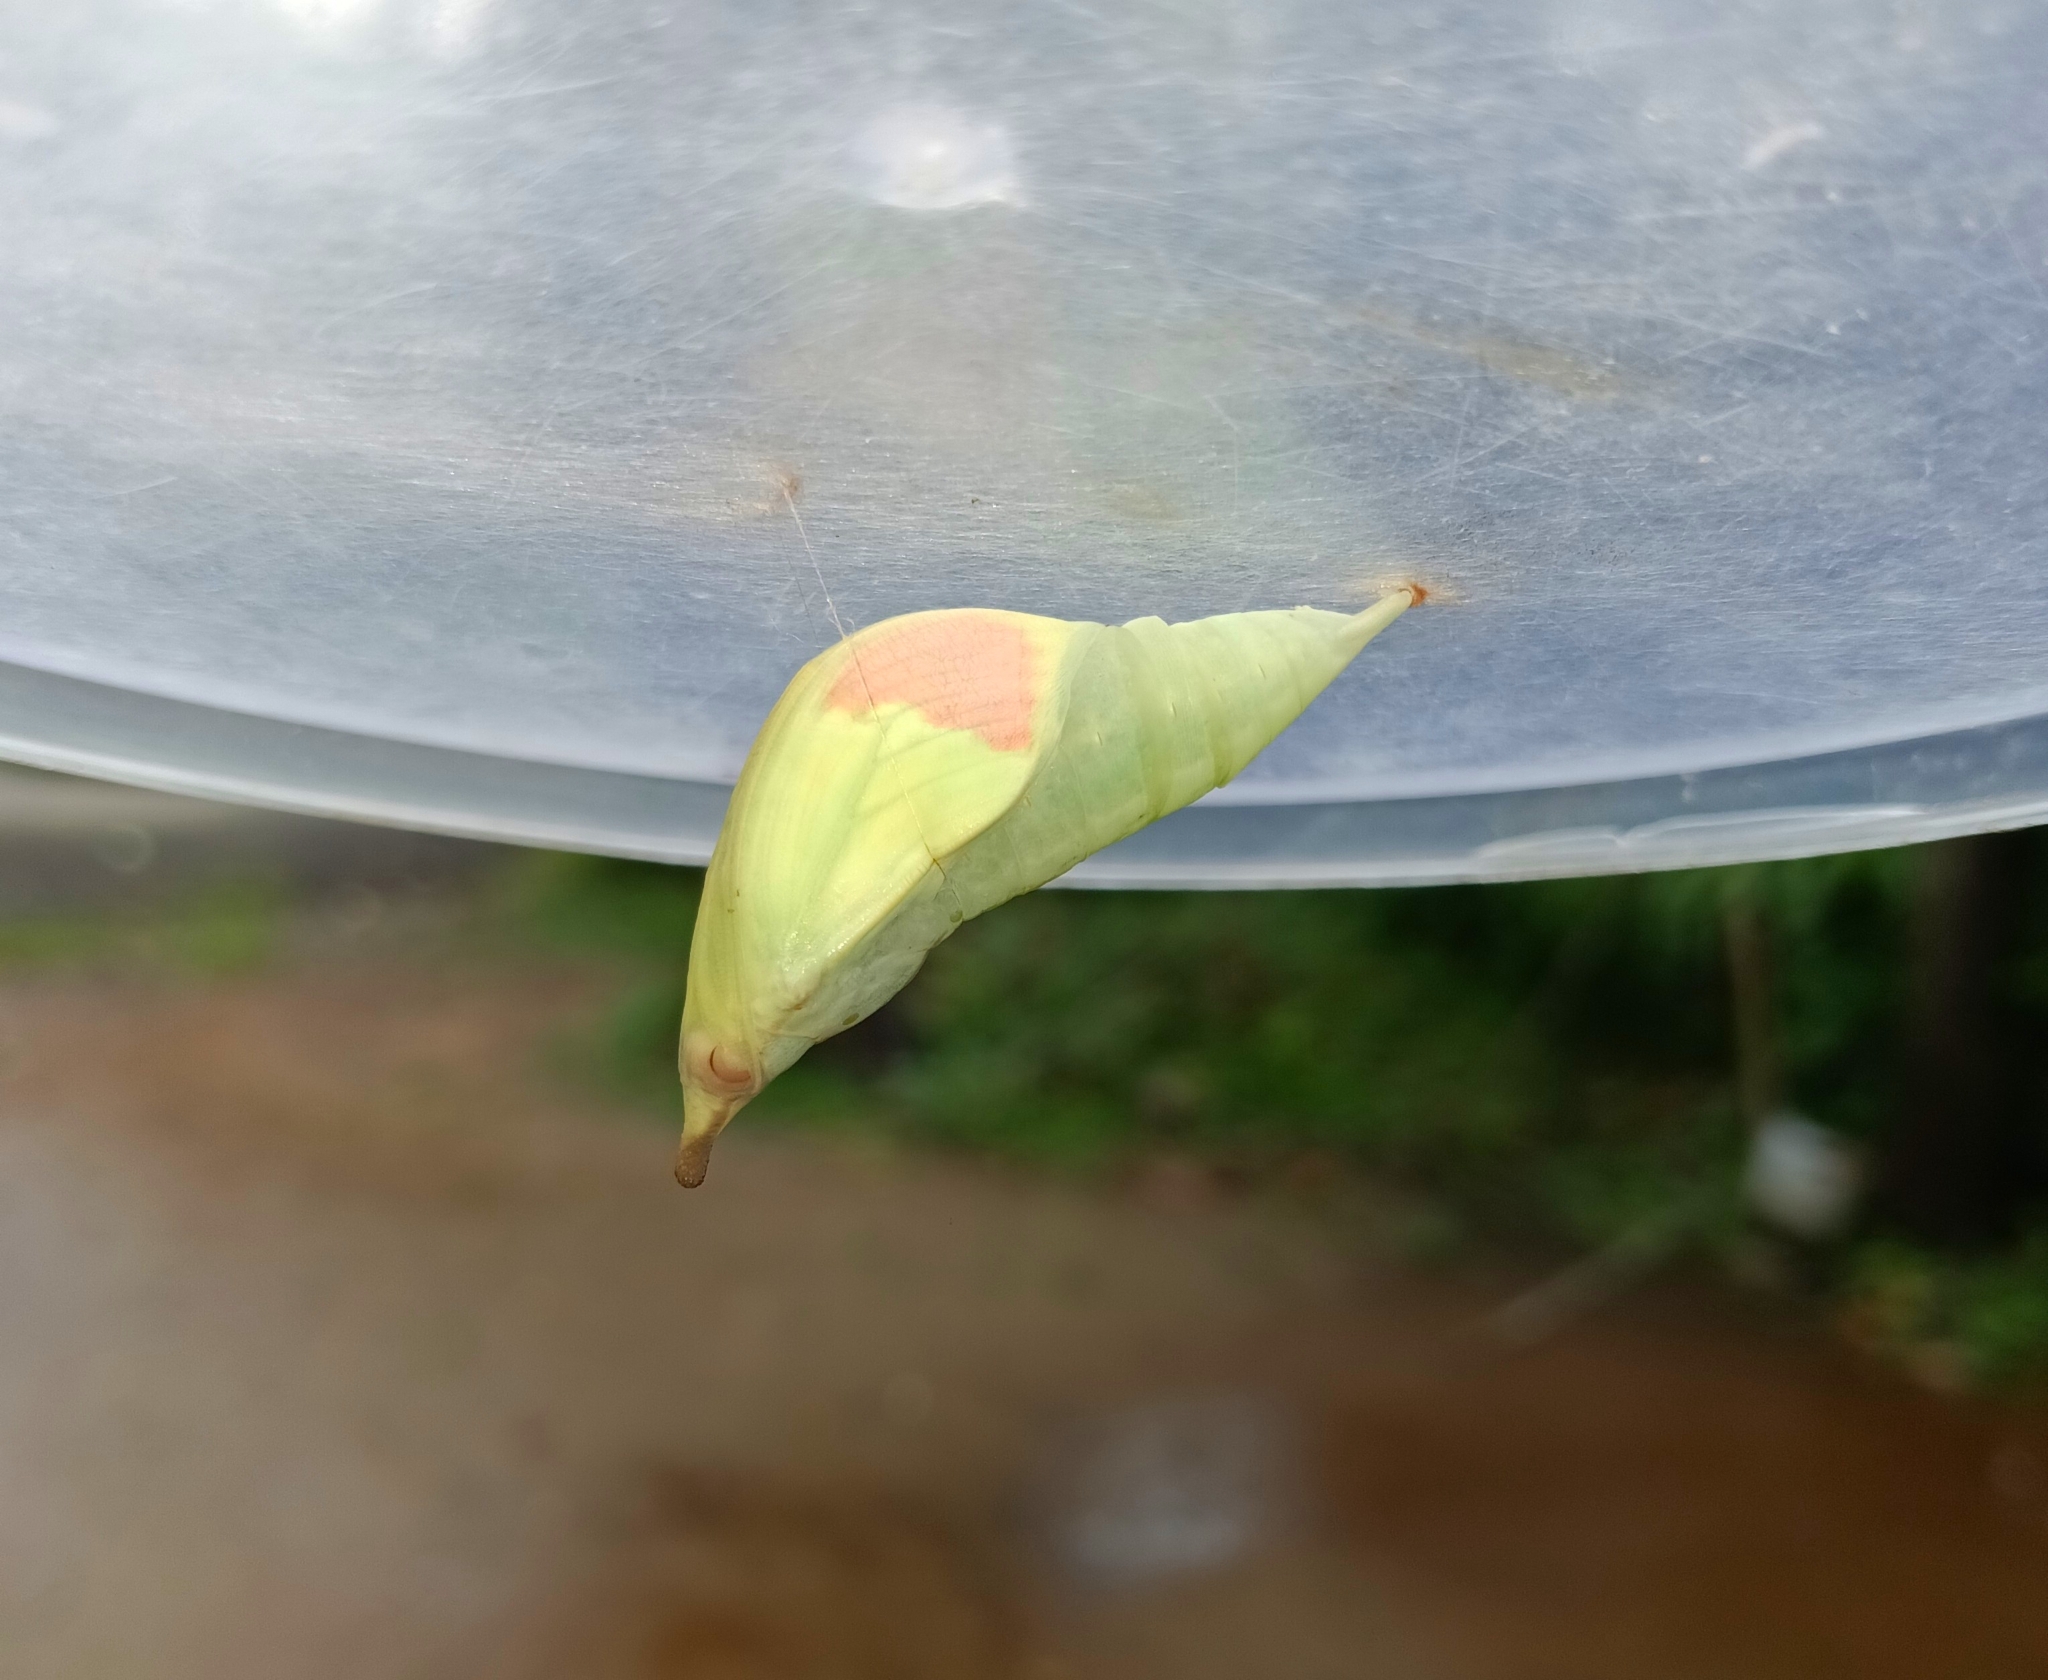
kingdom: Animalia
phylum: Arthropoda
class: Insecta
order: Lepidoptera
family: Pieridae
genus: Hebomoia
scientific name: Hebomoia glaucippe
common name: Great orange tip
